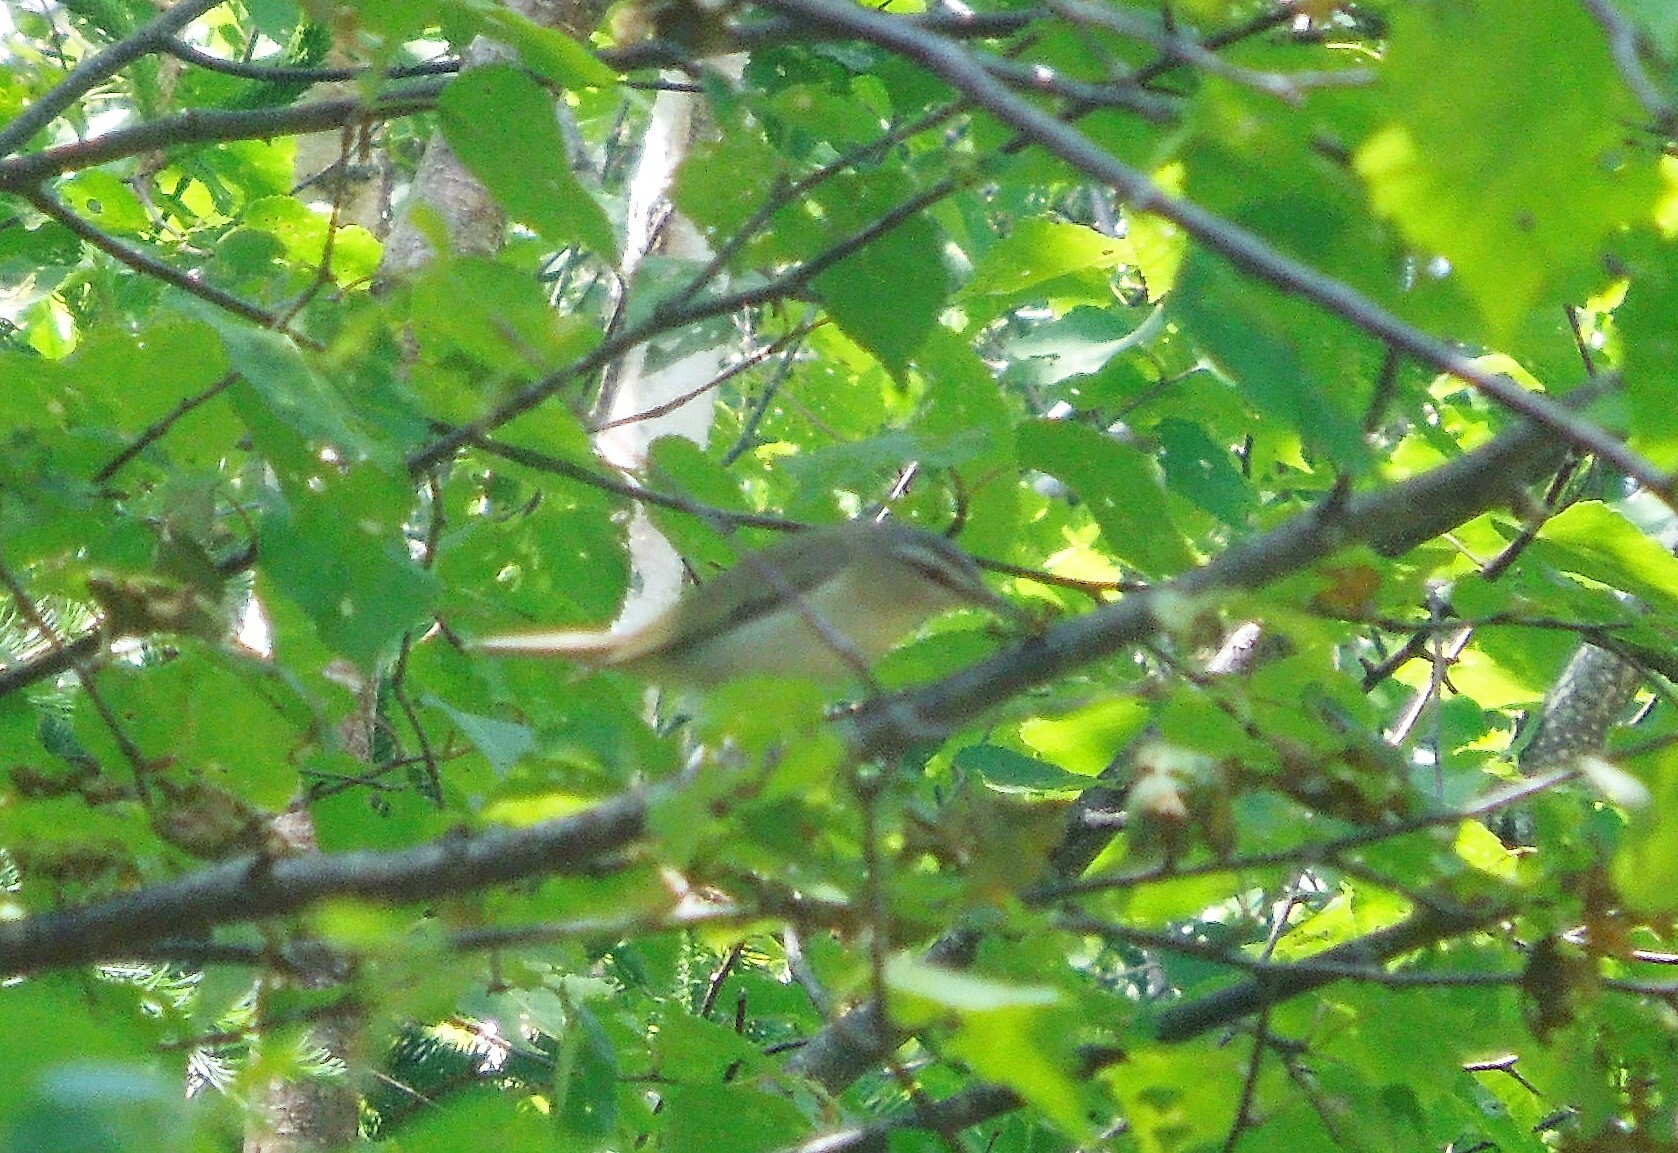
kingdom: Animalia
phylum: Chordata
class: Aves
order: Passeriformes
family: Vireonidae
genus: Vireo
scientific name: Vireo olivaceus
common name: Red-eyed vireo
